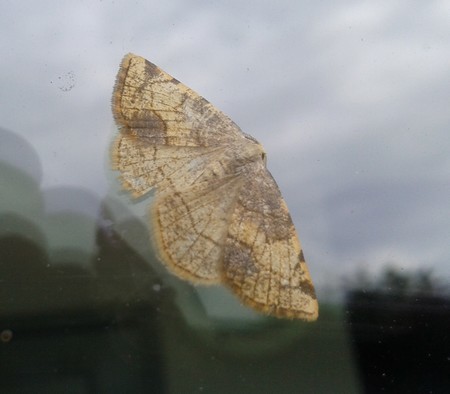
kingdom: Animalia
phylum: Arthropoda
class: Insecta
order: Lepidoptera
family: Geometridae
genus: Stegania
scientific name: Stegania trimaculata
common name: Dorset cream wave
